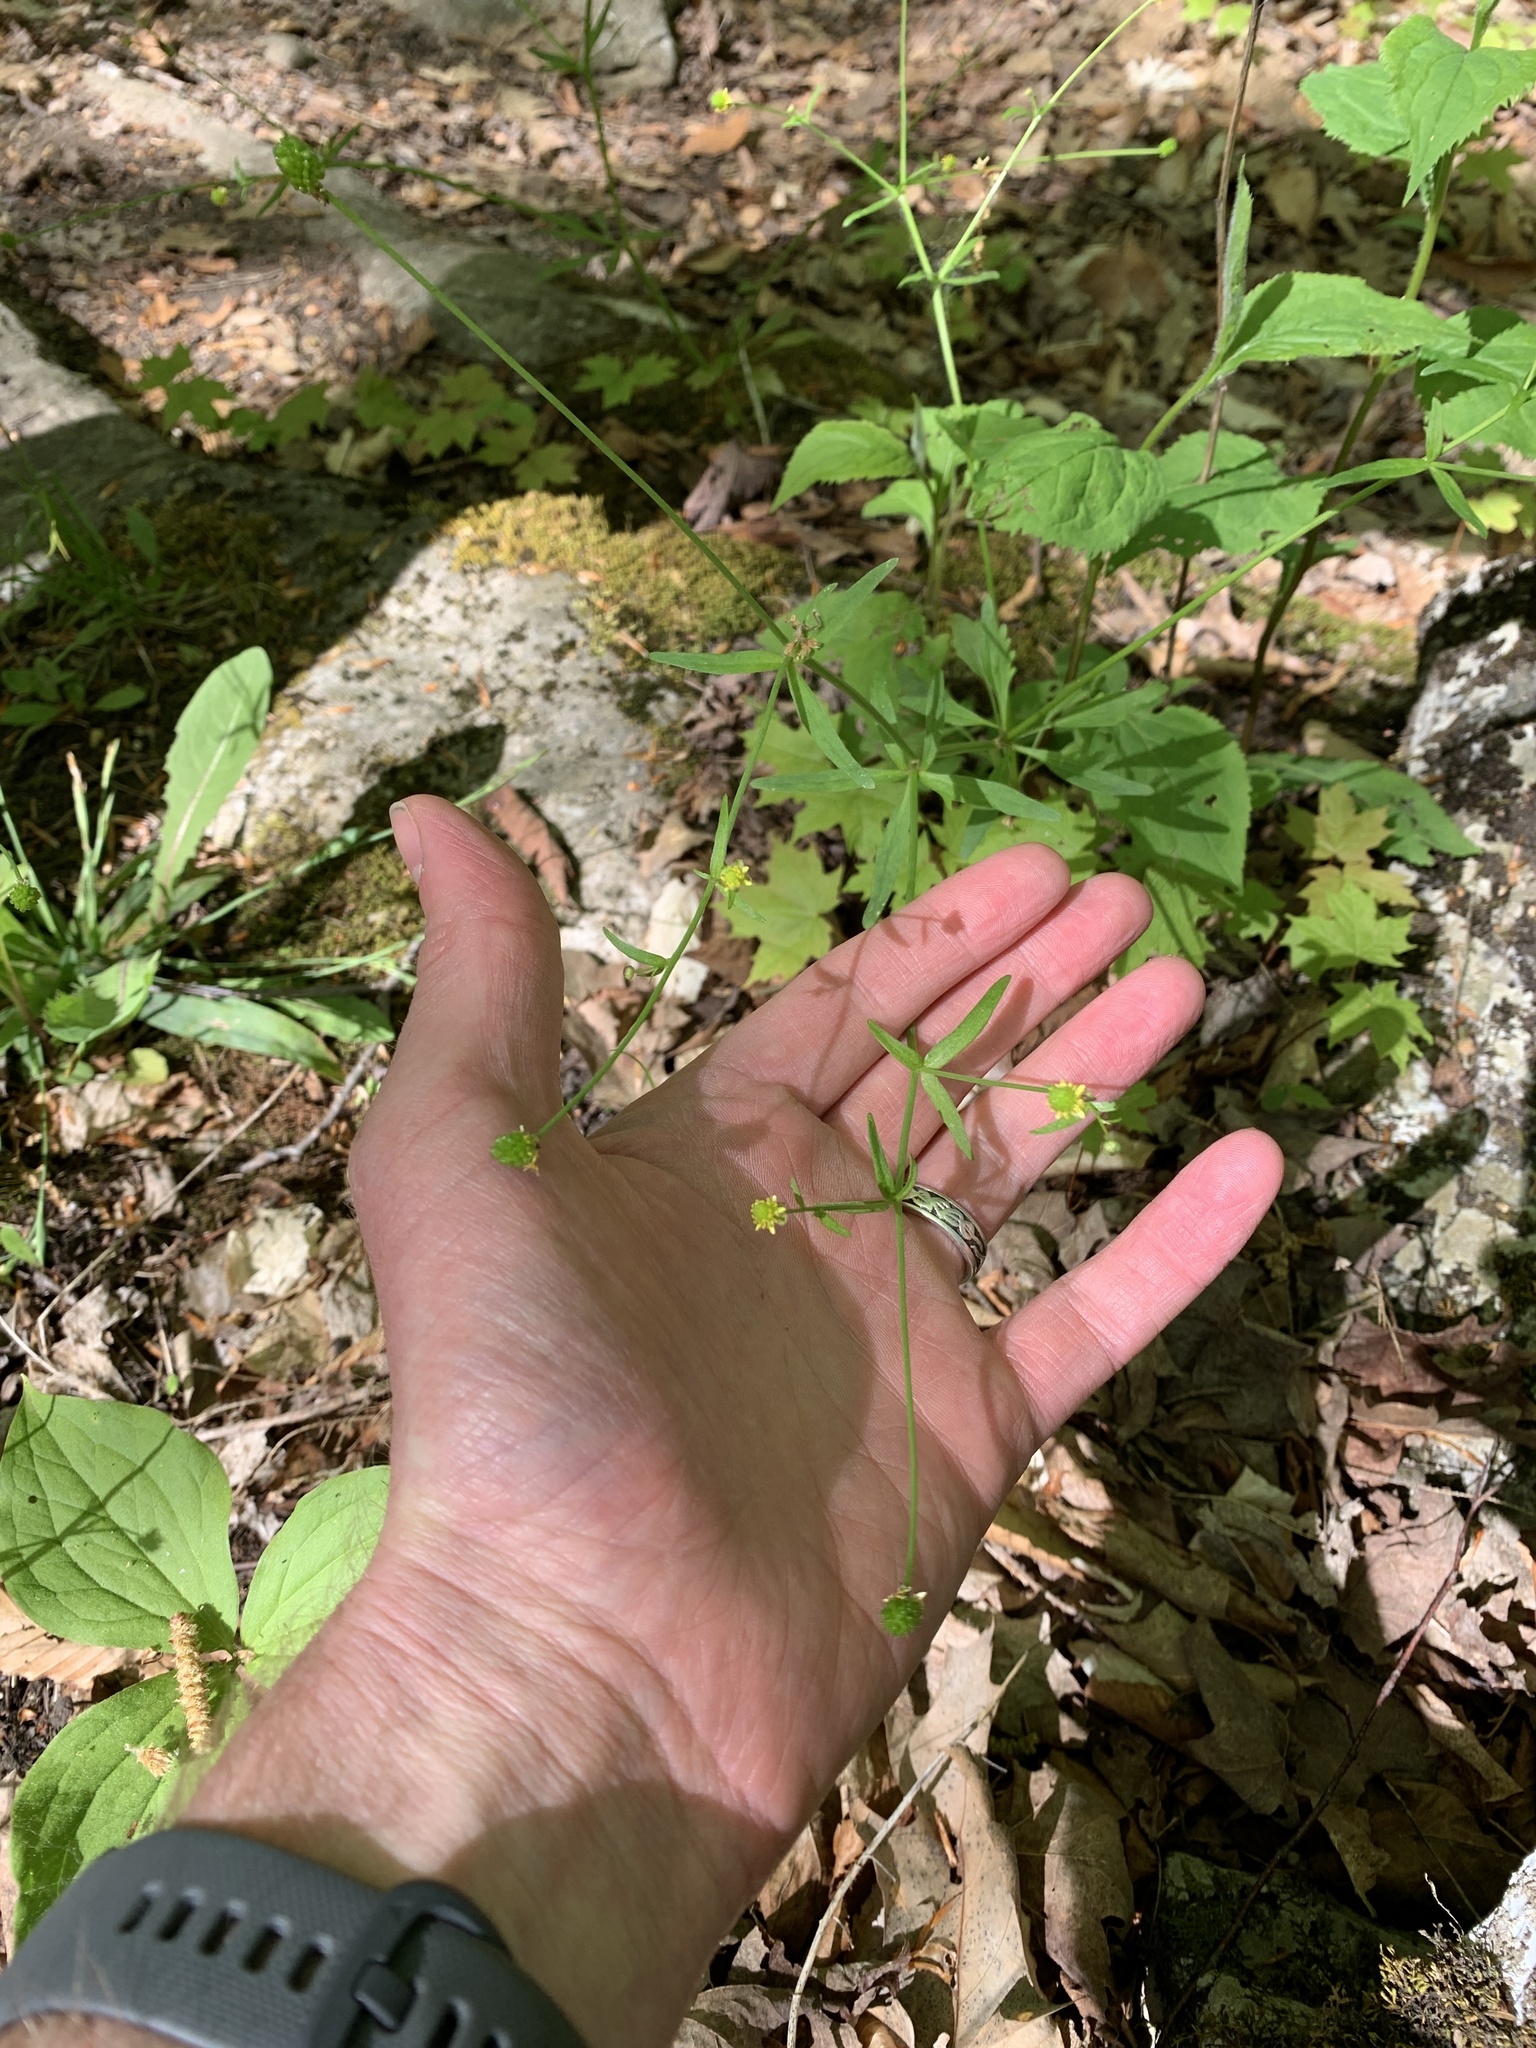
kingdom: Plantae
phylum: Tracheophyta
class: Magnoliopsida
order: Ranunculales
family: Ranunculaceae
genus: Ranunculus
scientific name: Ranunculus abortivus
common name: Early wood buttercup
